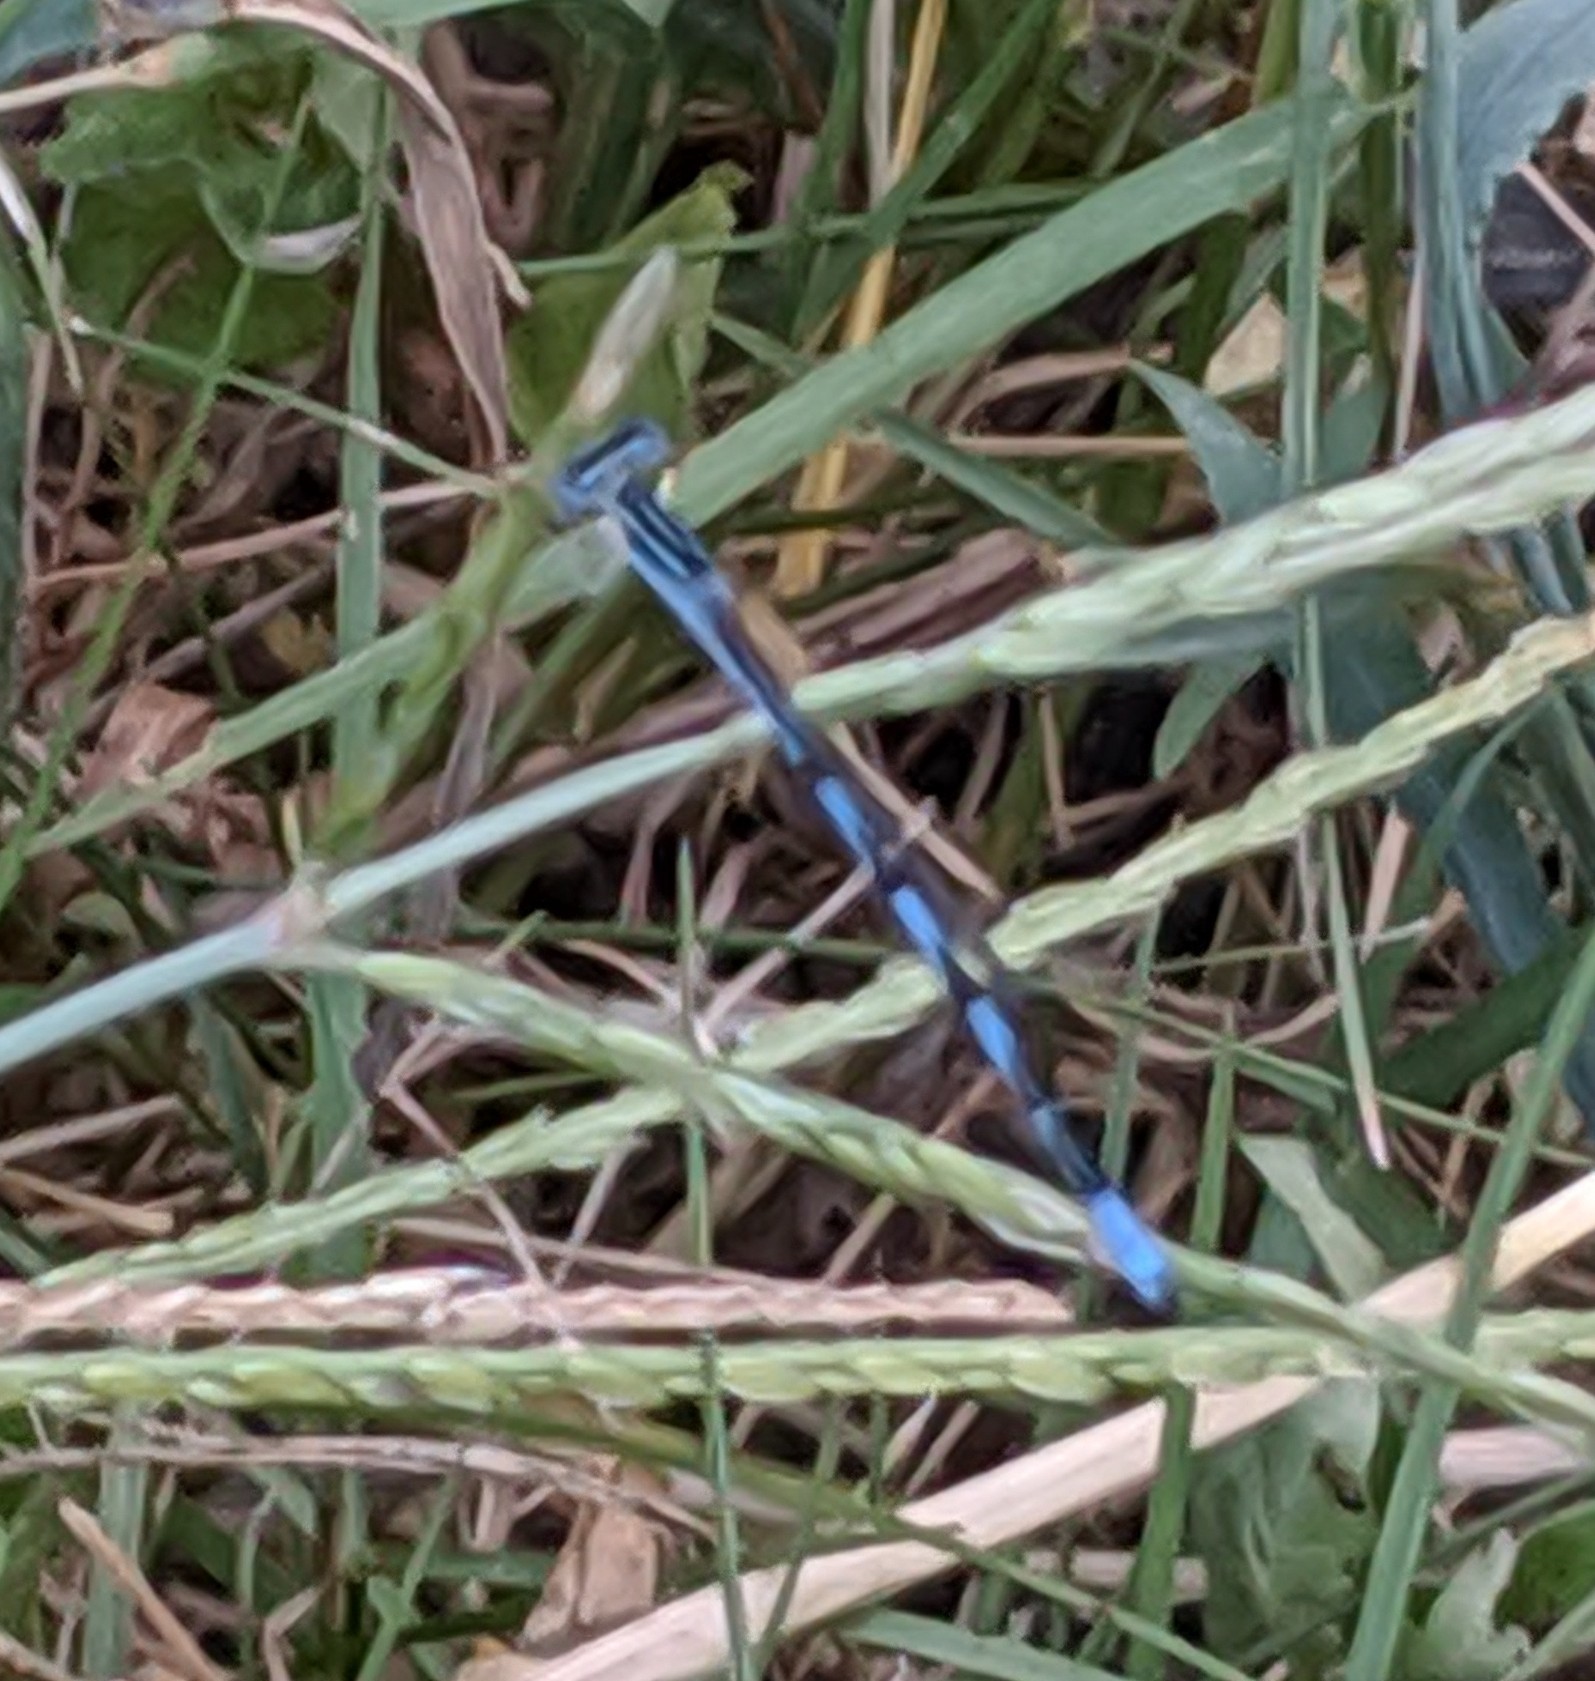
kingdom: Animalia
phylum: Arthropoda
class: Insecta
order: Odonata
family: Coenagrionidae
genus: Enallagma
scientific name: Enallagma basidens
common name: Double-striped bluet
